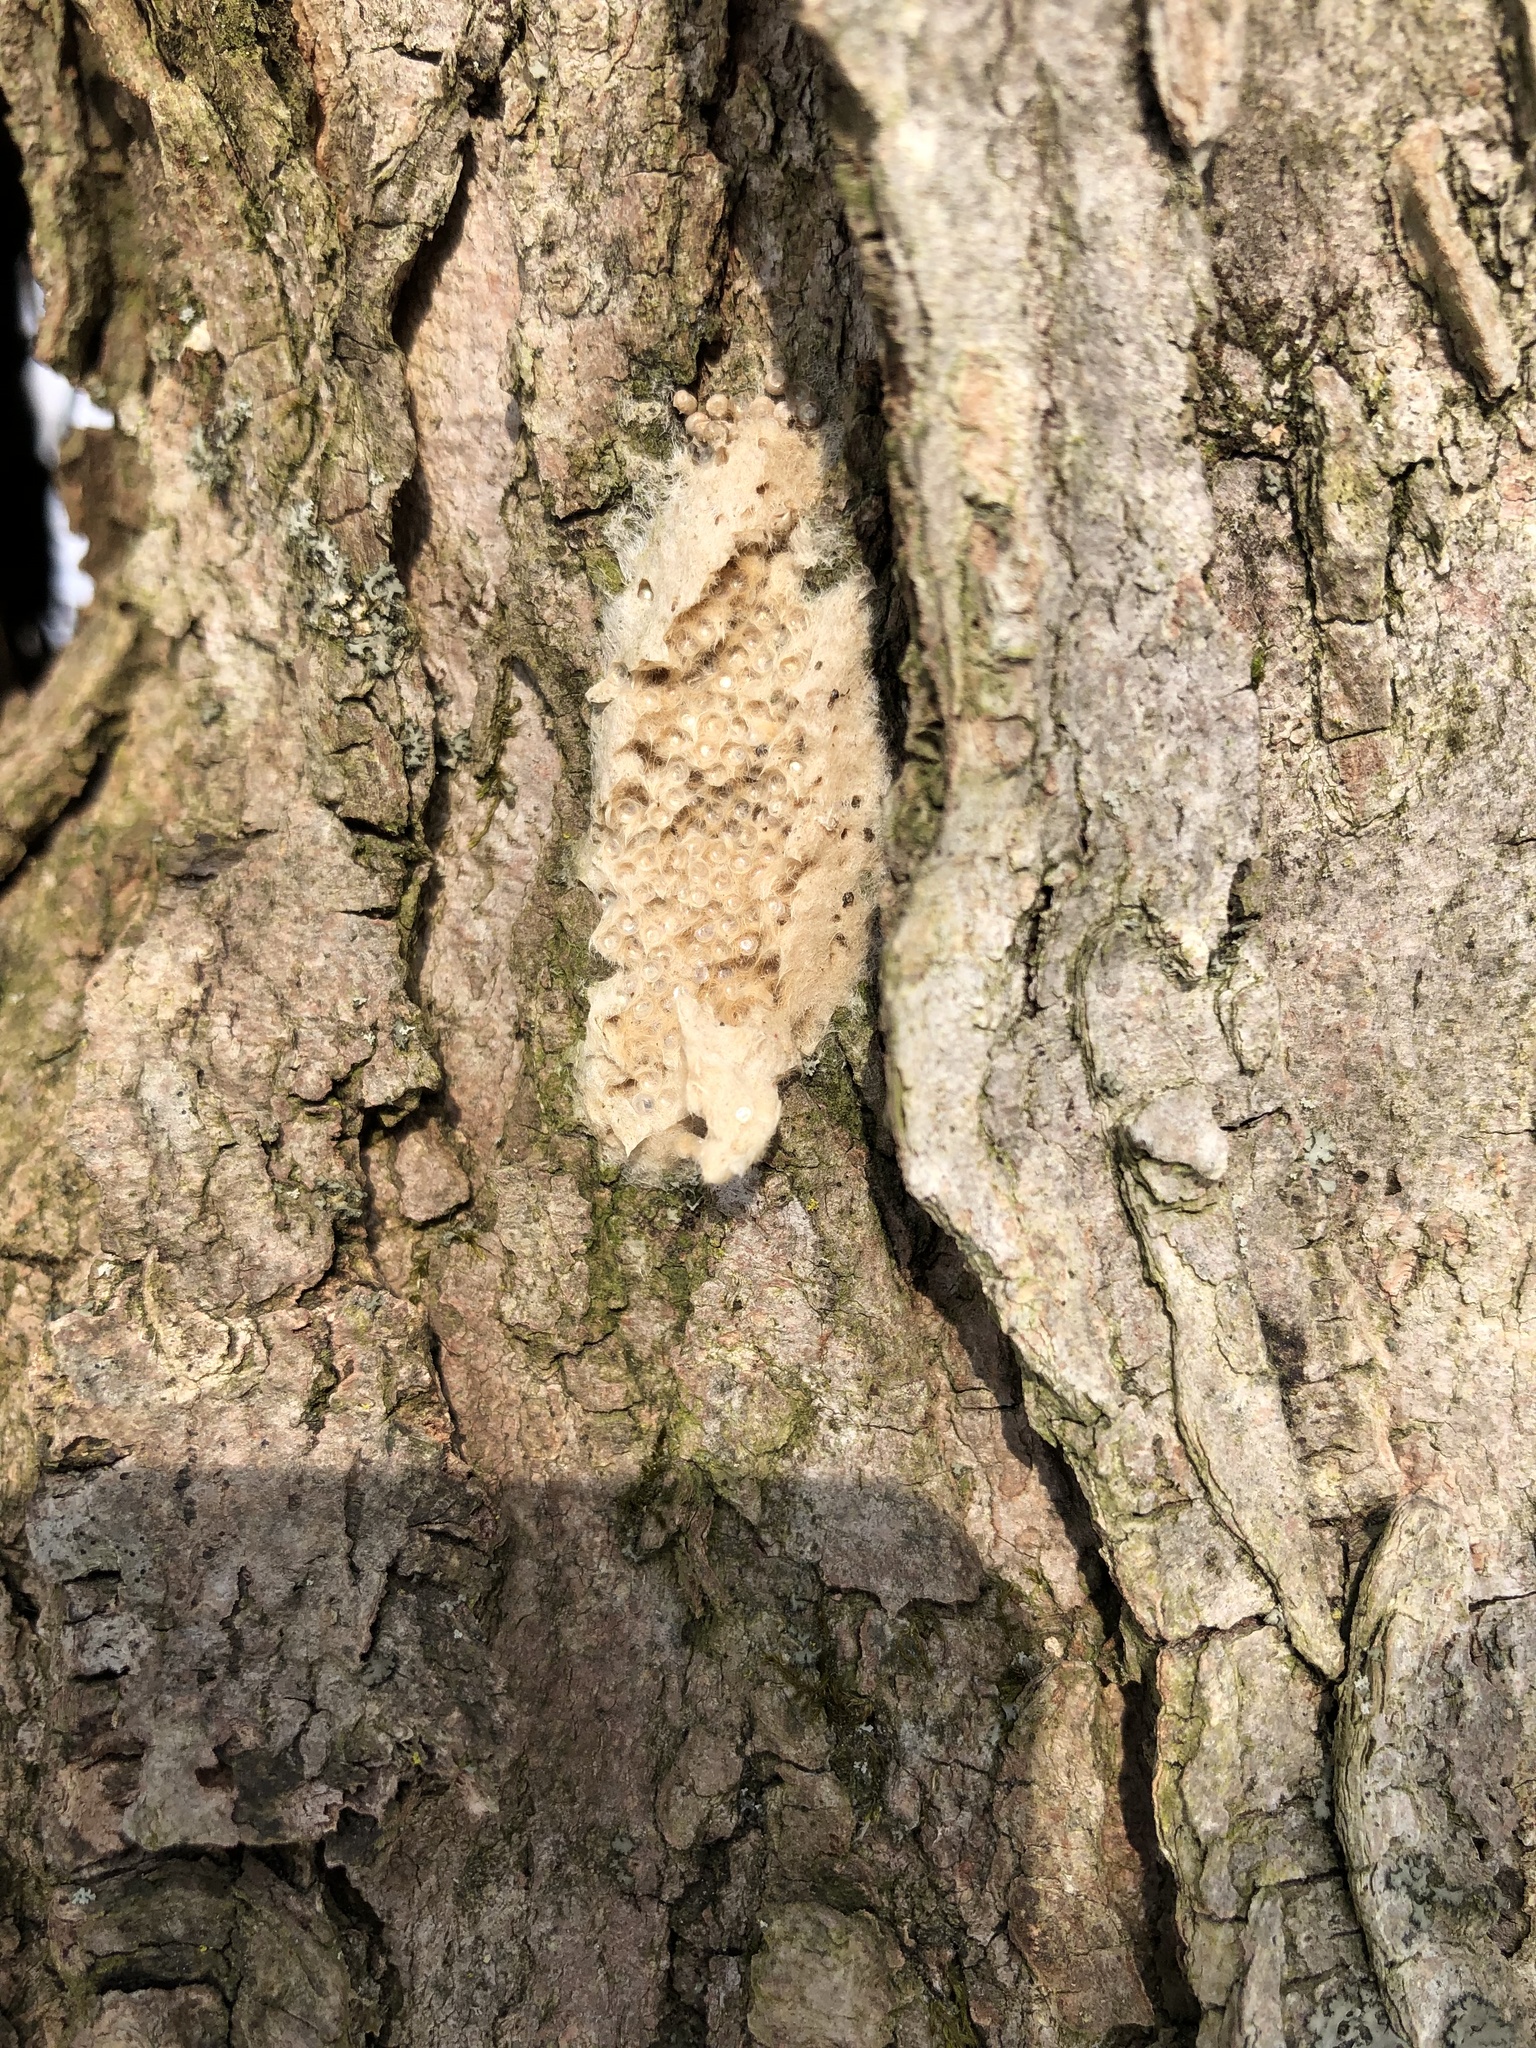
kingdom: Animalia
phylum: Arthropoda
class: Insecta
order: Lepidoptera
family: Erebidae
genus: Lymantria
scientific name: Lymantria dispar
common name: Gypsy moth
